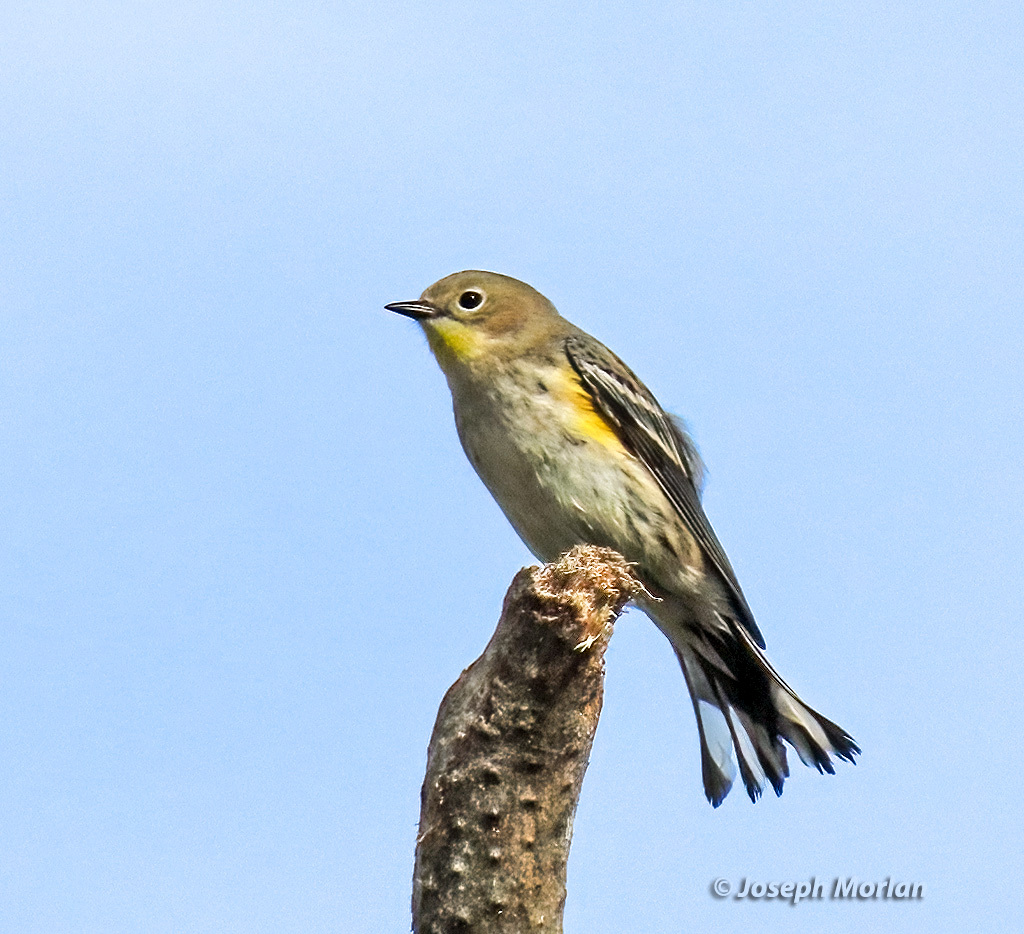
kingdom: Animalia
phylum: Chordata
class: Aves
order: Passeriformes
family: Parulidae
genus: Setophaga
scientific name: Setophaga coronata
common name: Myrtle warbler
